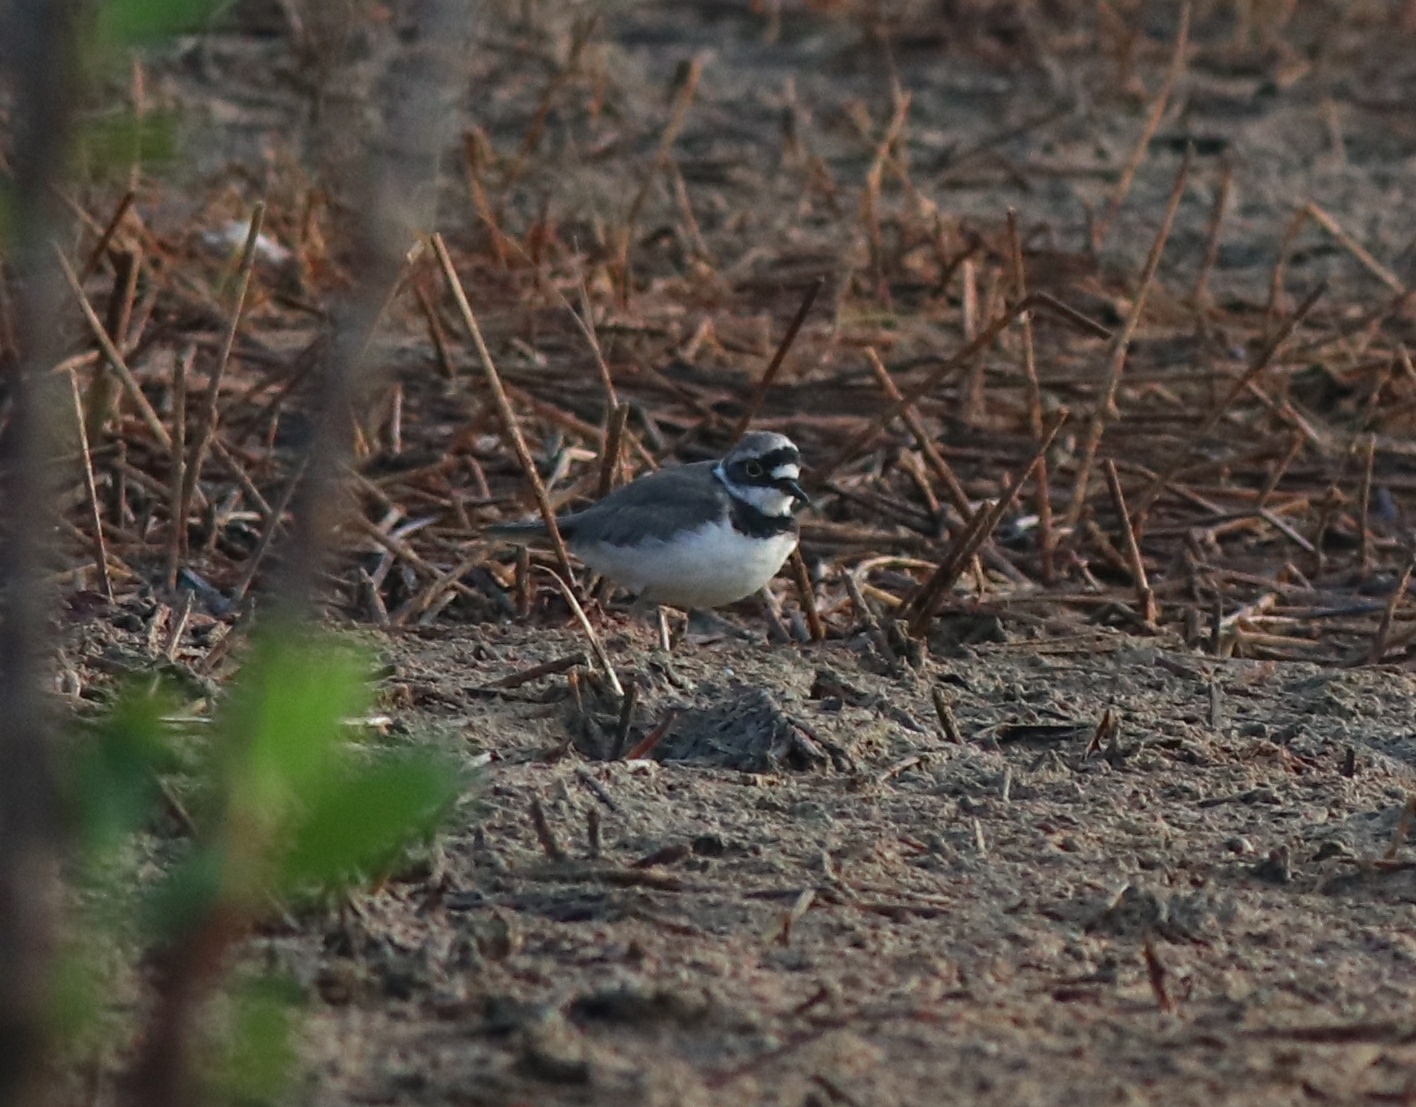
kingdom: Animalia
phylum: Chordata
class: Aves
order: Charadriiformes
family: Charadriidae
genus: Charadrius
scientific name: Charadrius dubius
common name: Little ringed plover
